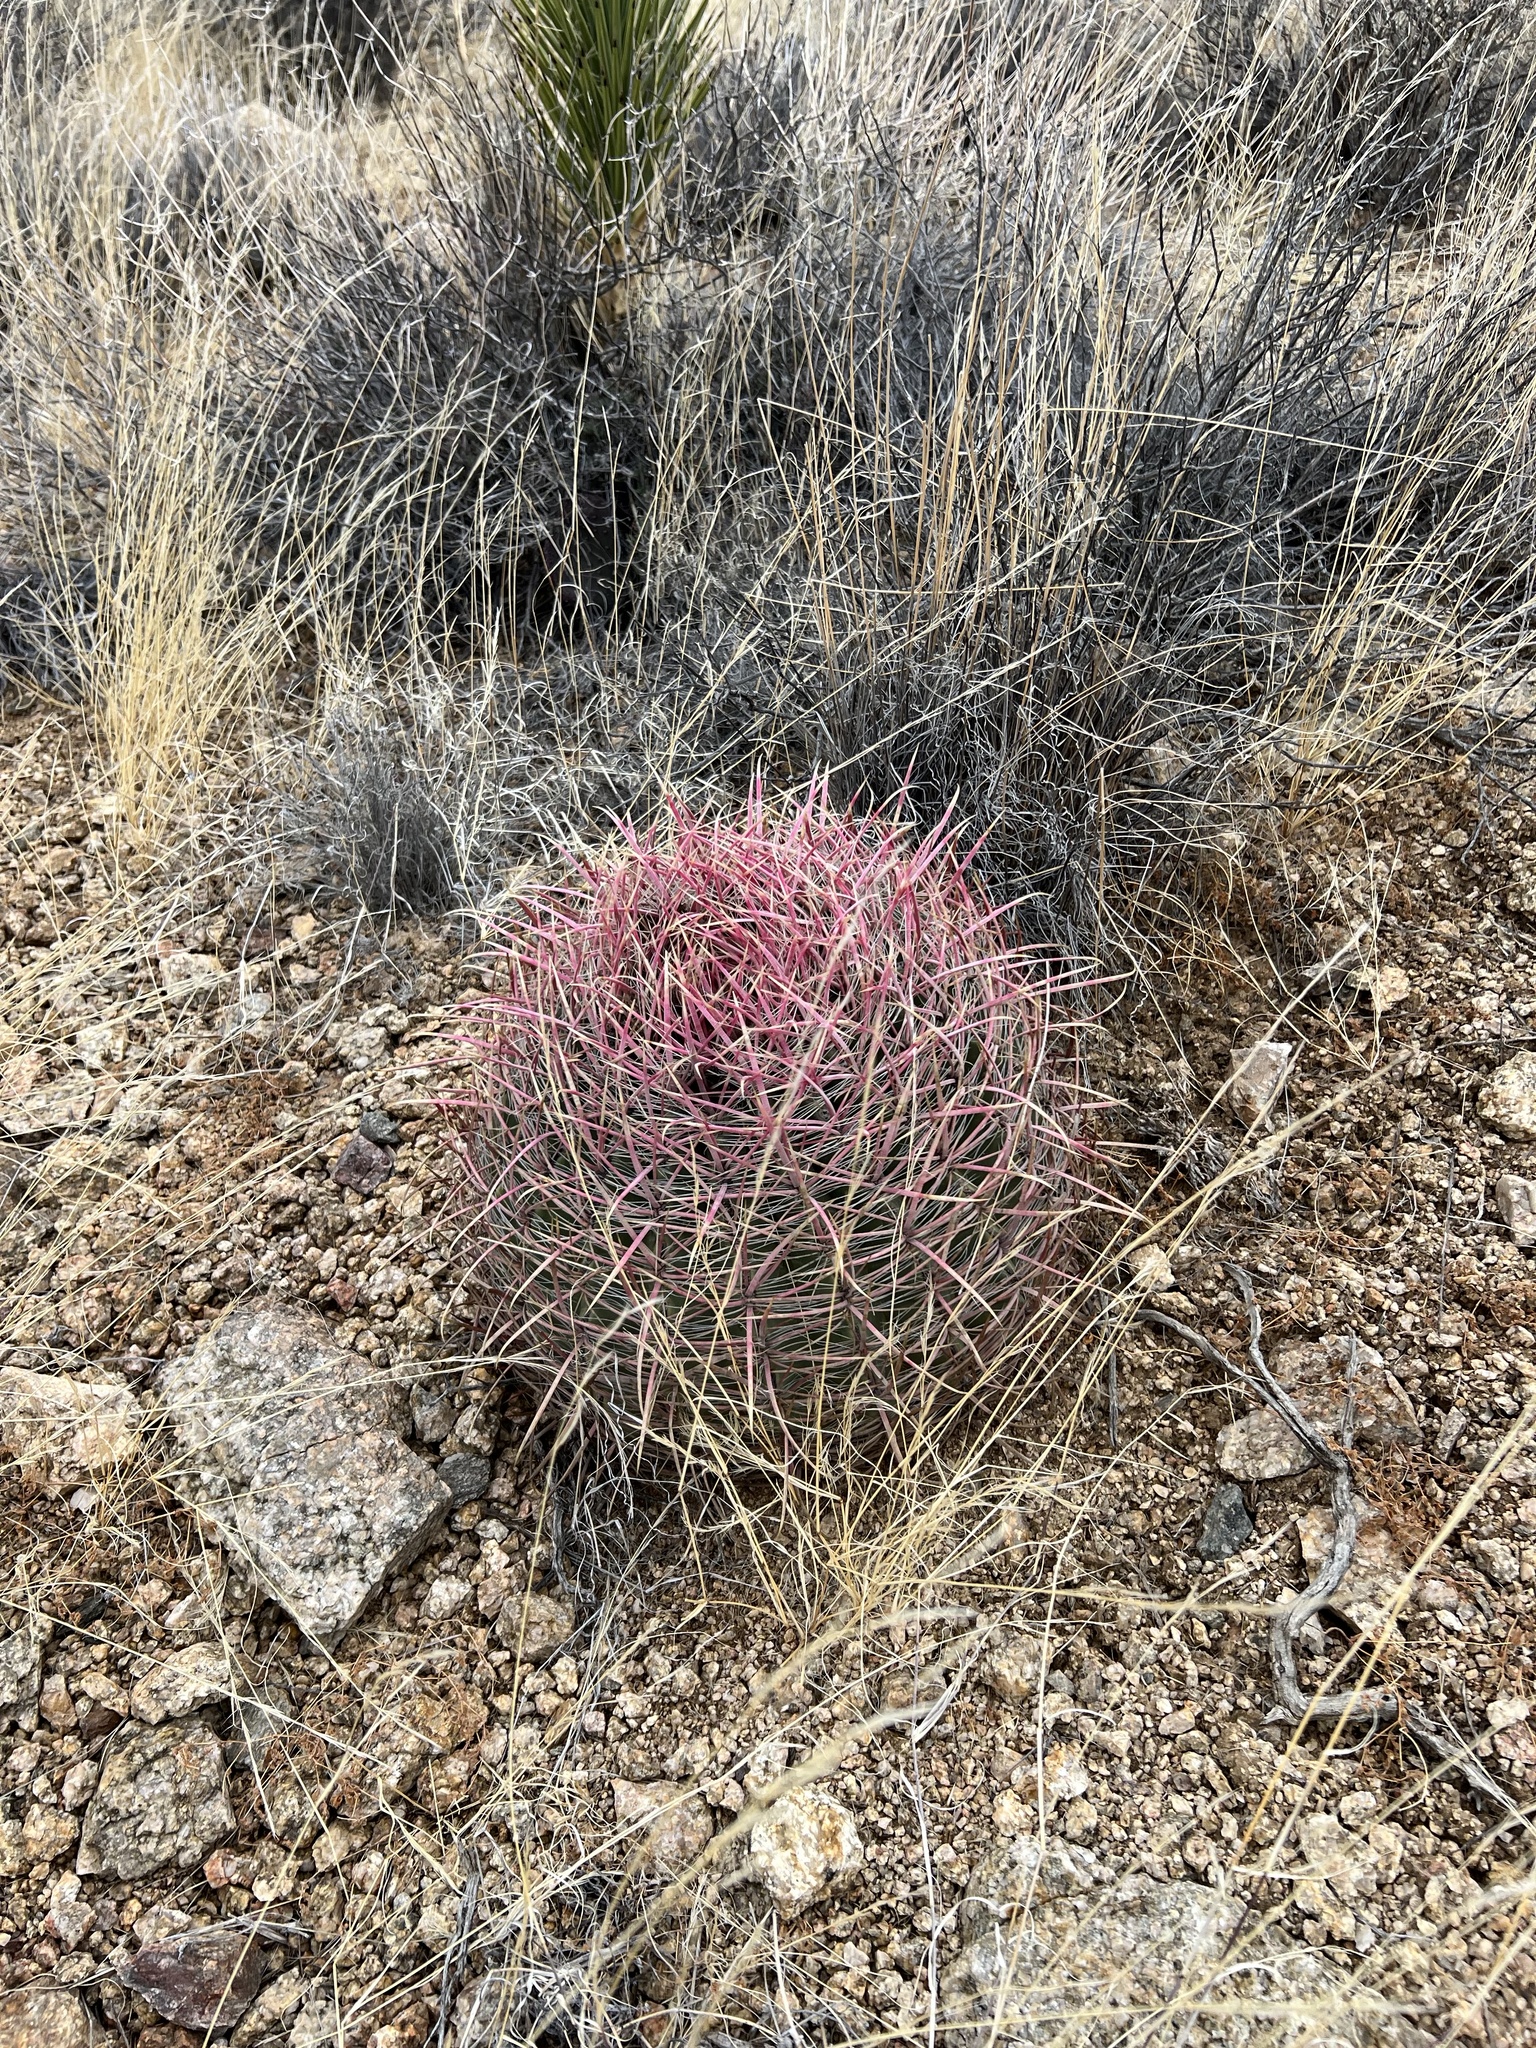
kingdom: Plantae
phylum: Tracheophyta
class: Magnoliopsida
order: Caryophyllales
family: Cactaceae
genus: Ferocactus
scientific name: Ferocactus cylindraceus
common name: California barrel cactus
